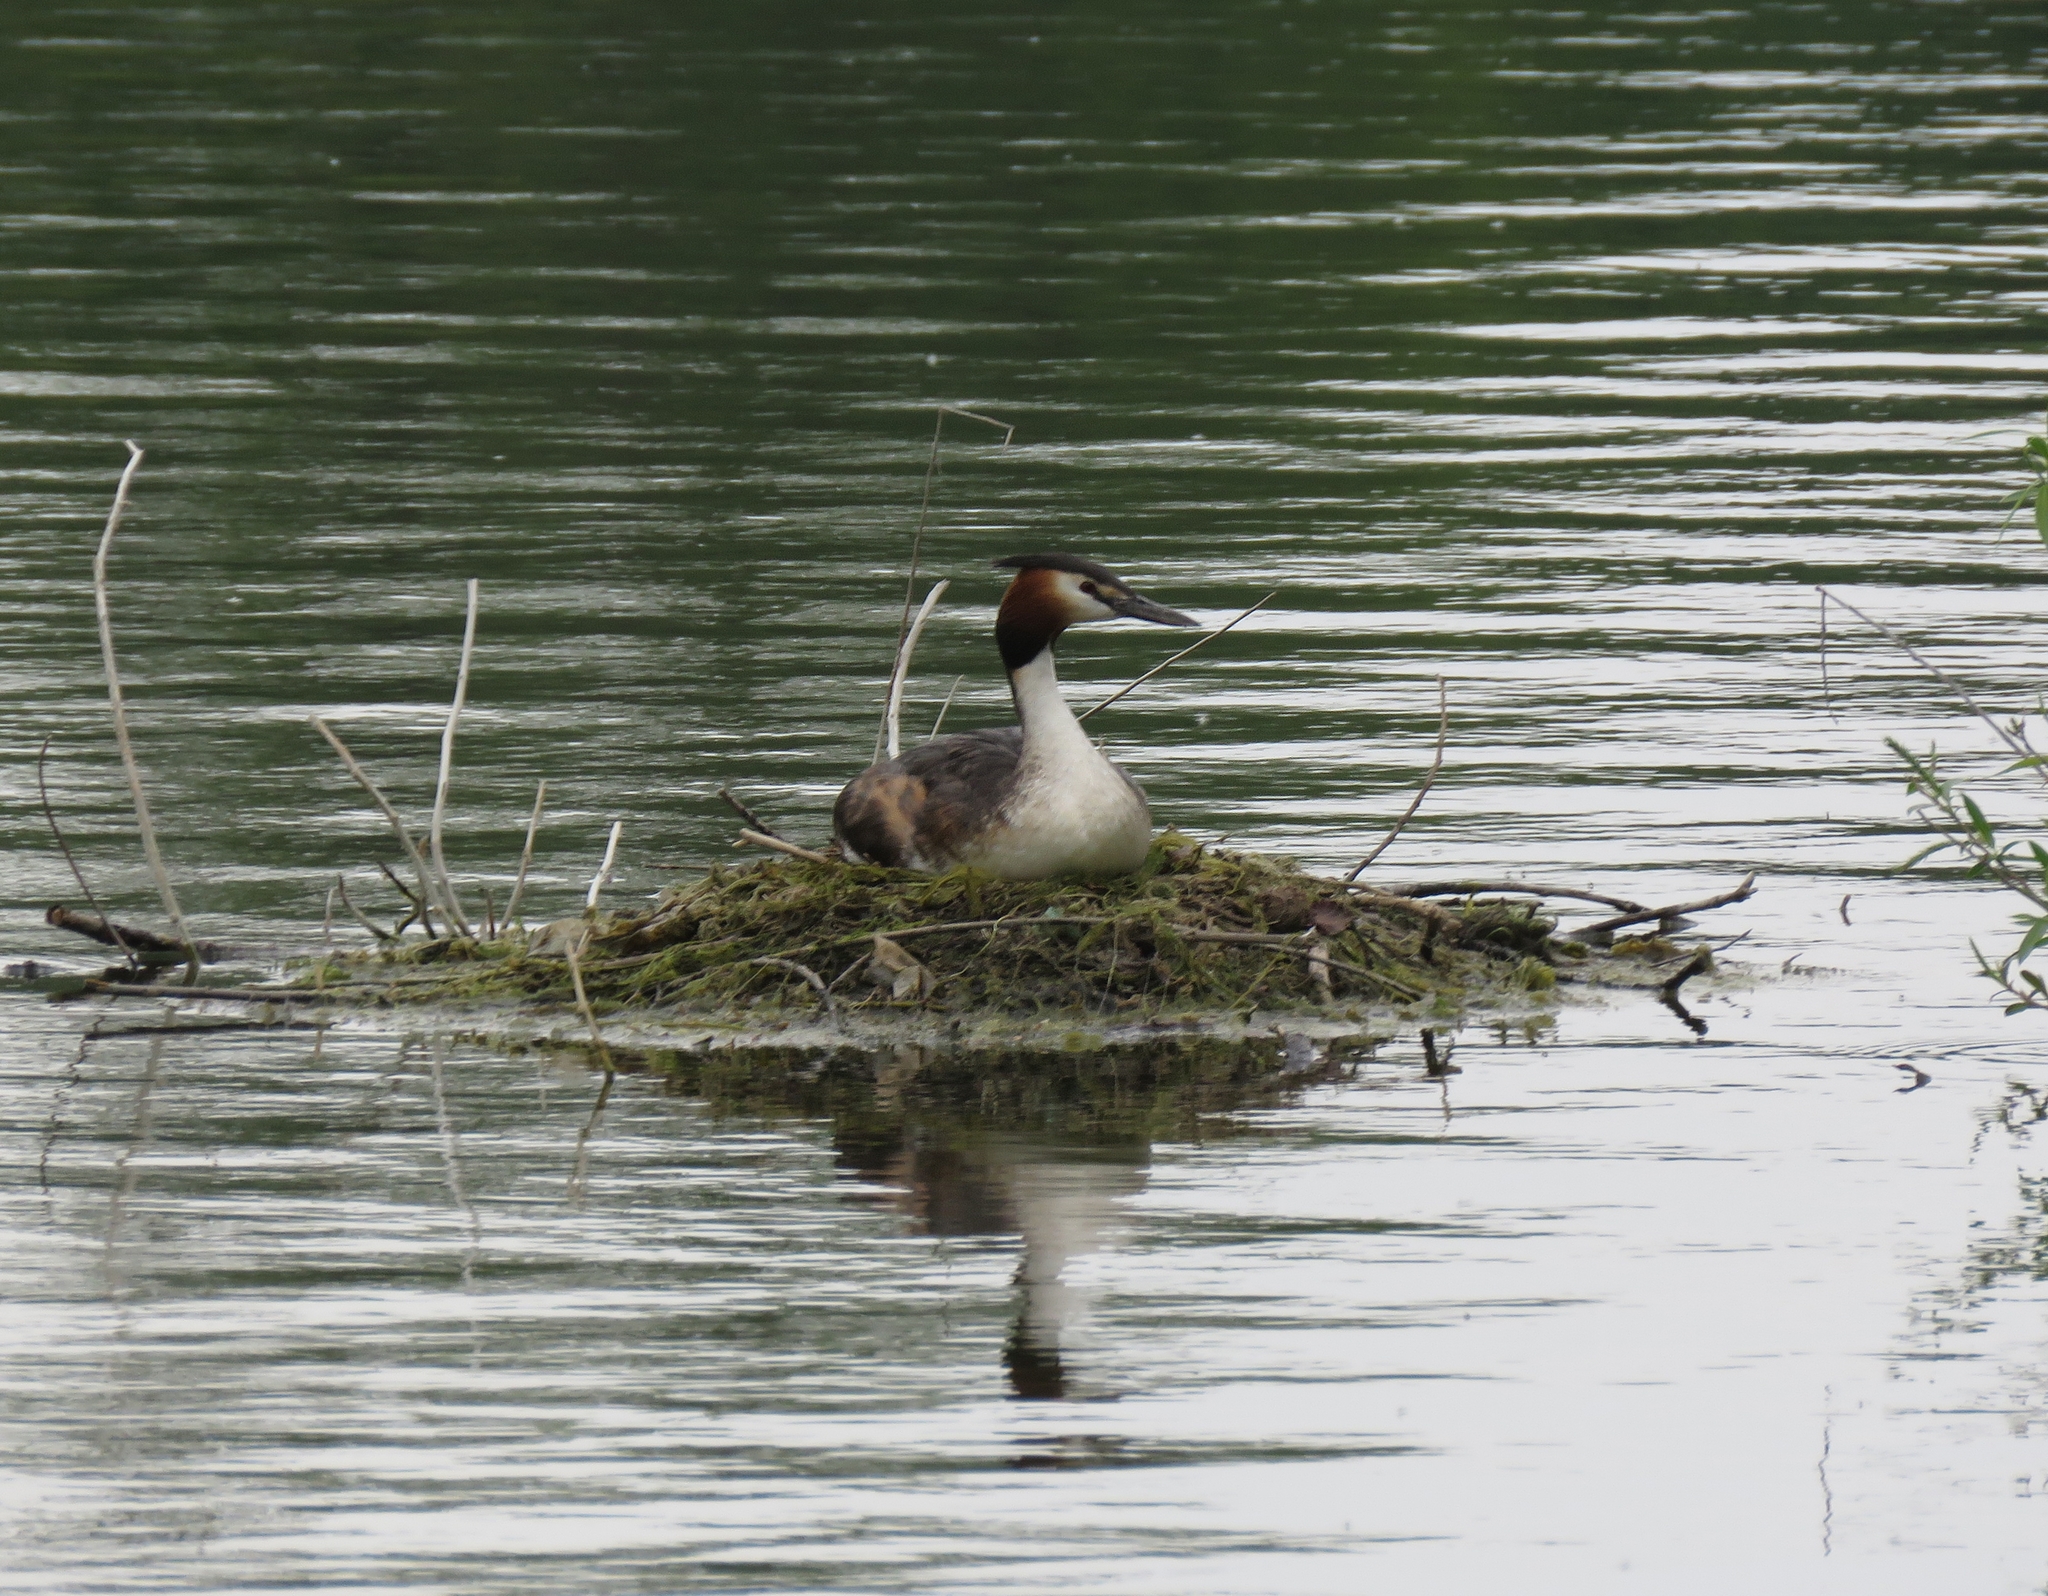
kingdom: Animalia
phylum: Chordata
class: Aves
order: Podicipediformes
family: Podicipedidae
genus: Podiceps
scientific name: Podiceps cristatus
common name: Great crested grebe
